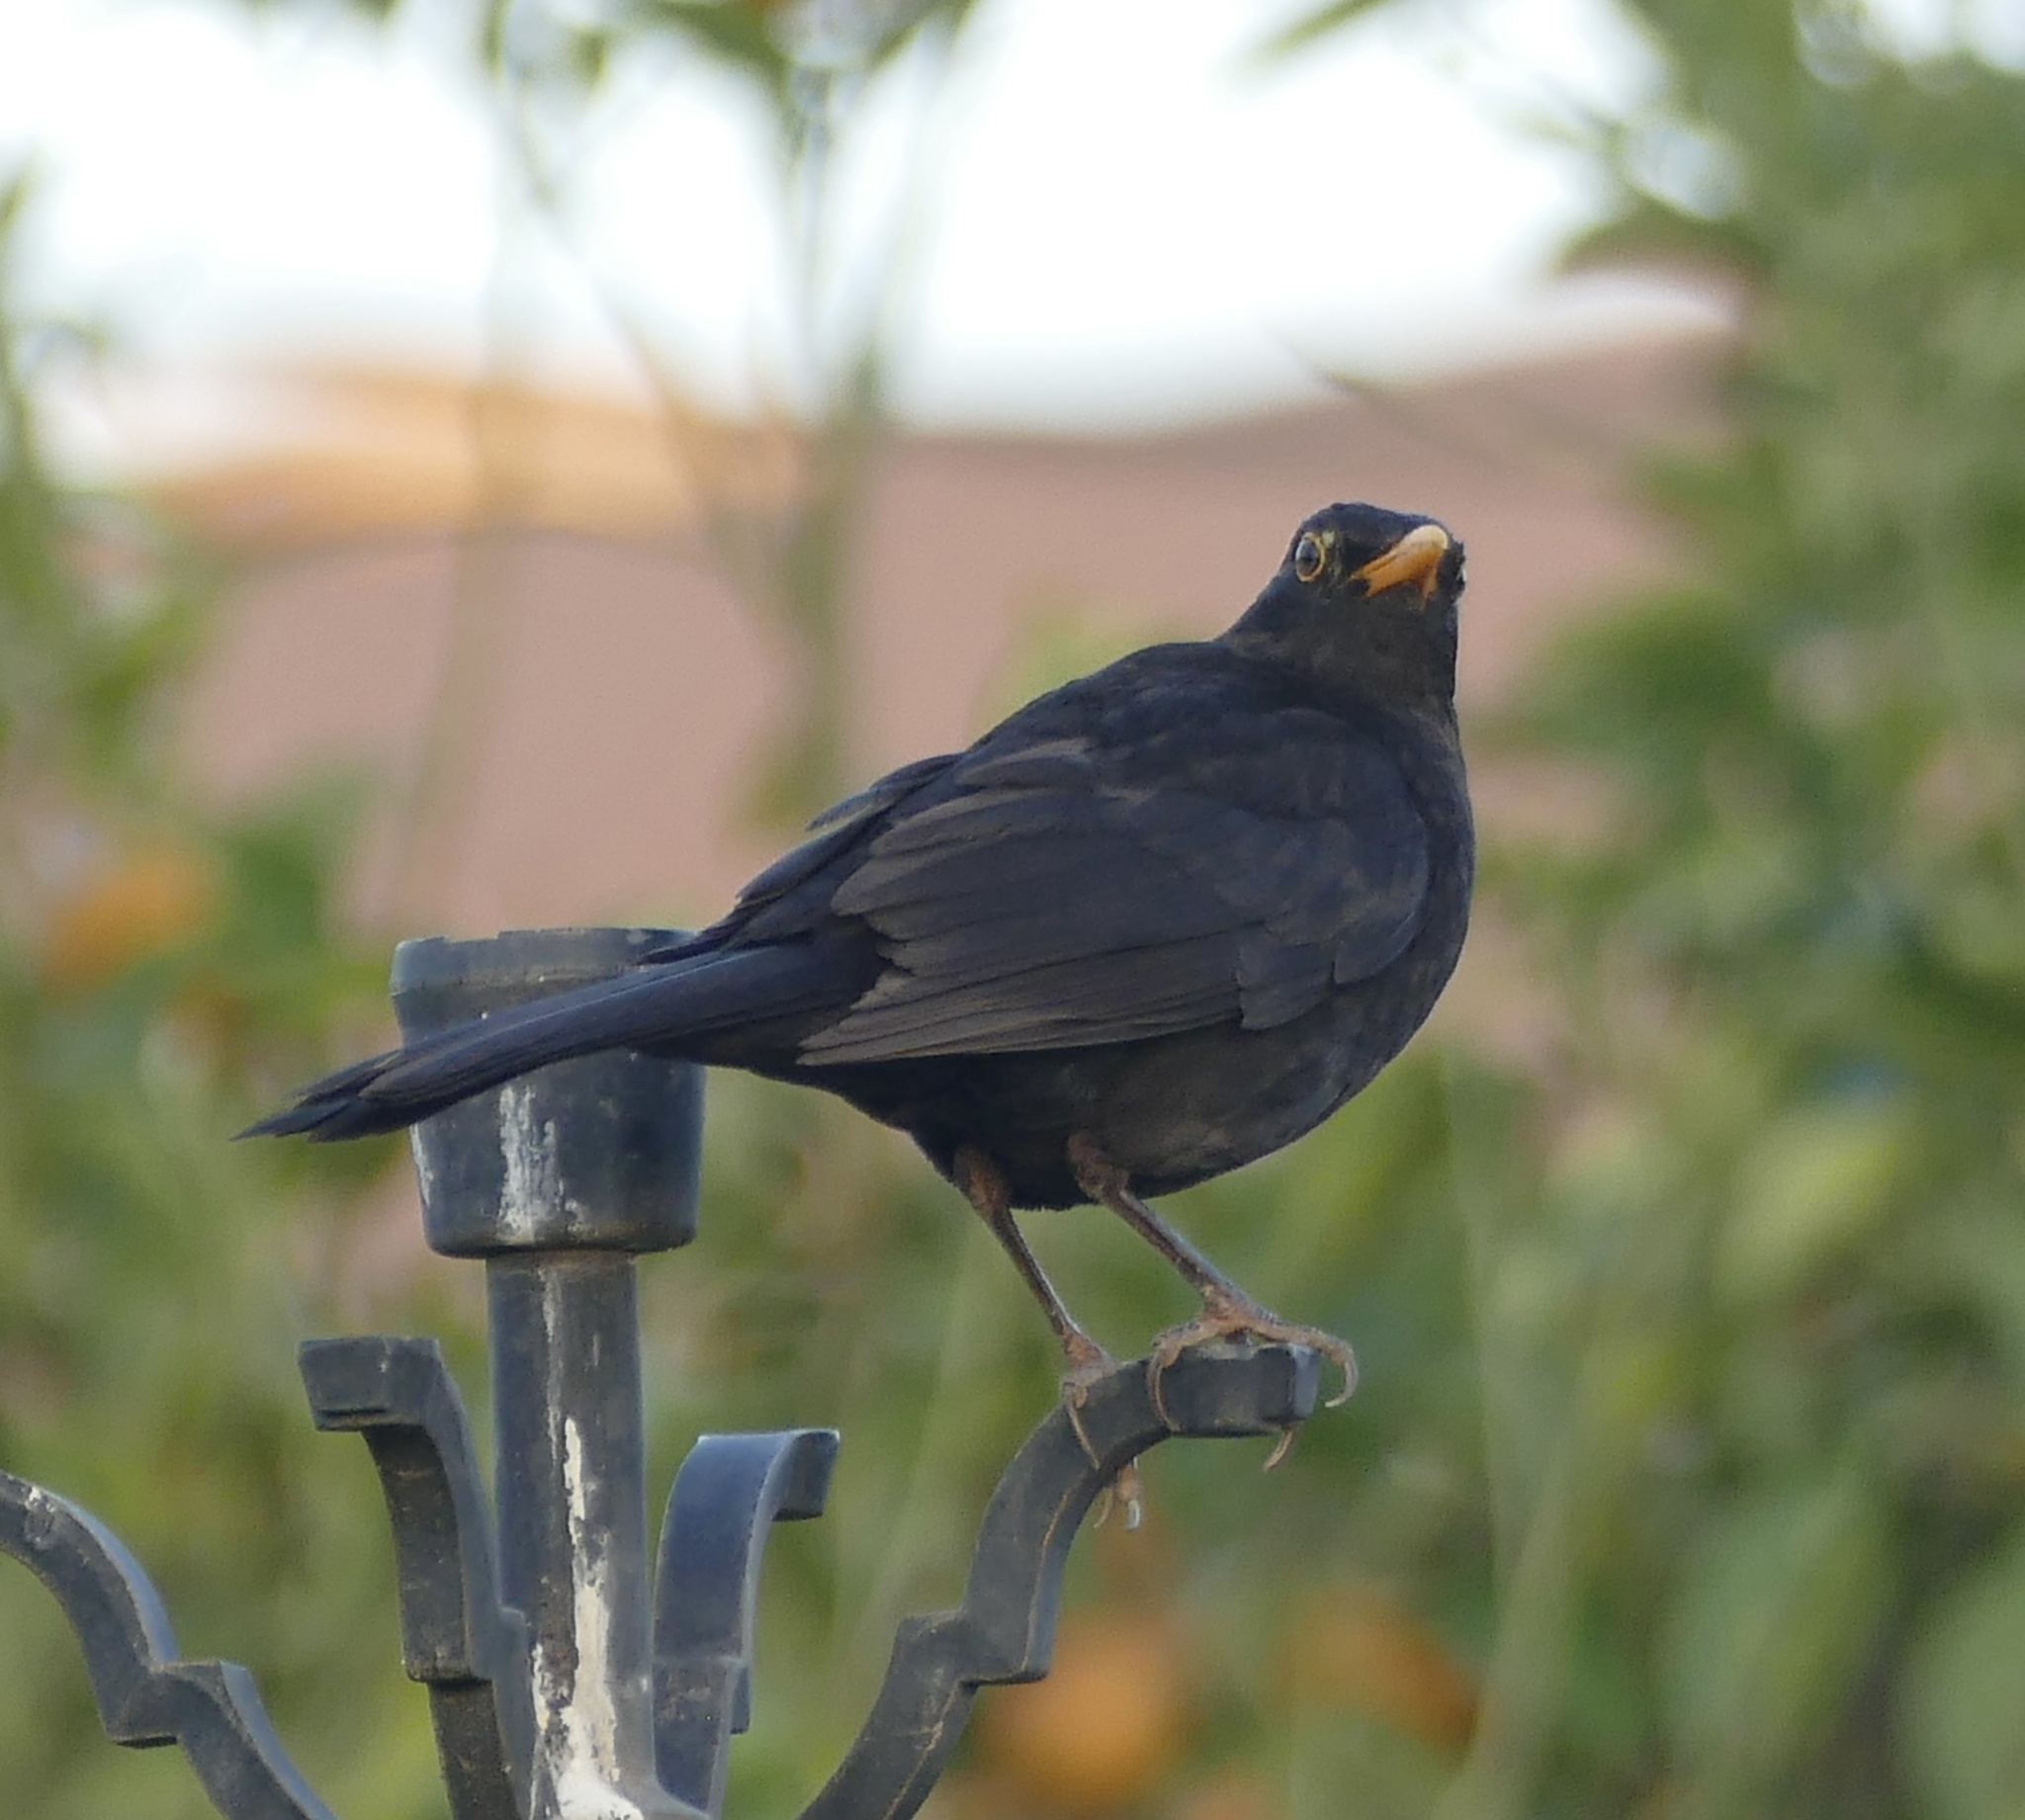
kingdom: Animalia
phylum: Chordata
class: Aves
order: Passeriformes
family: Turdidae
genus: Turdus
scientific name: Turdus merula
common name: Common blackbird
